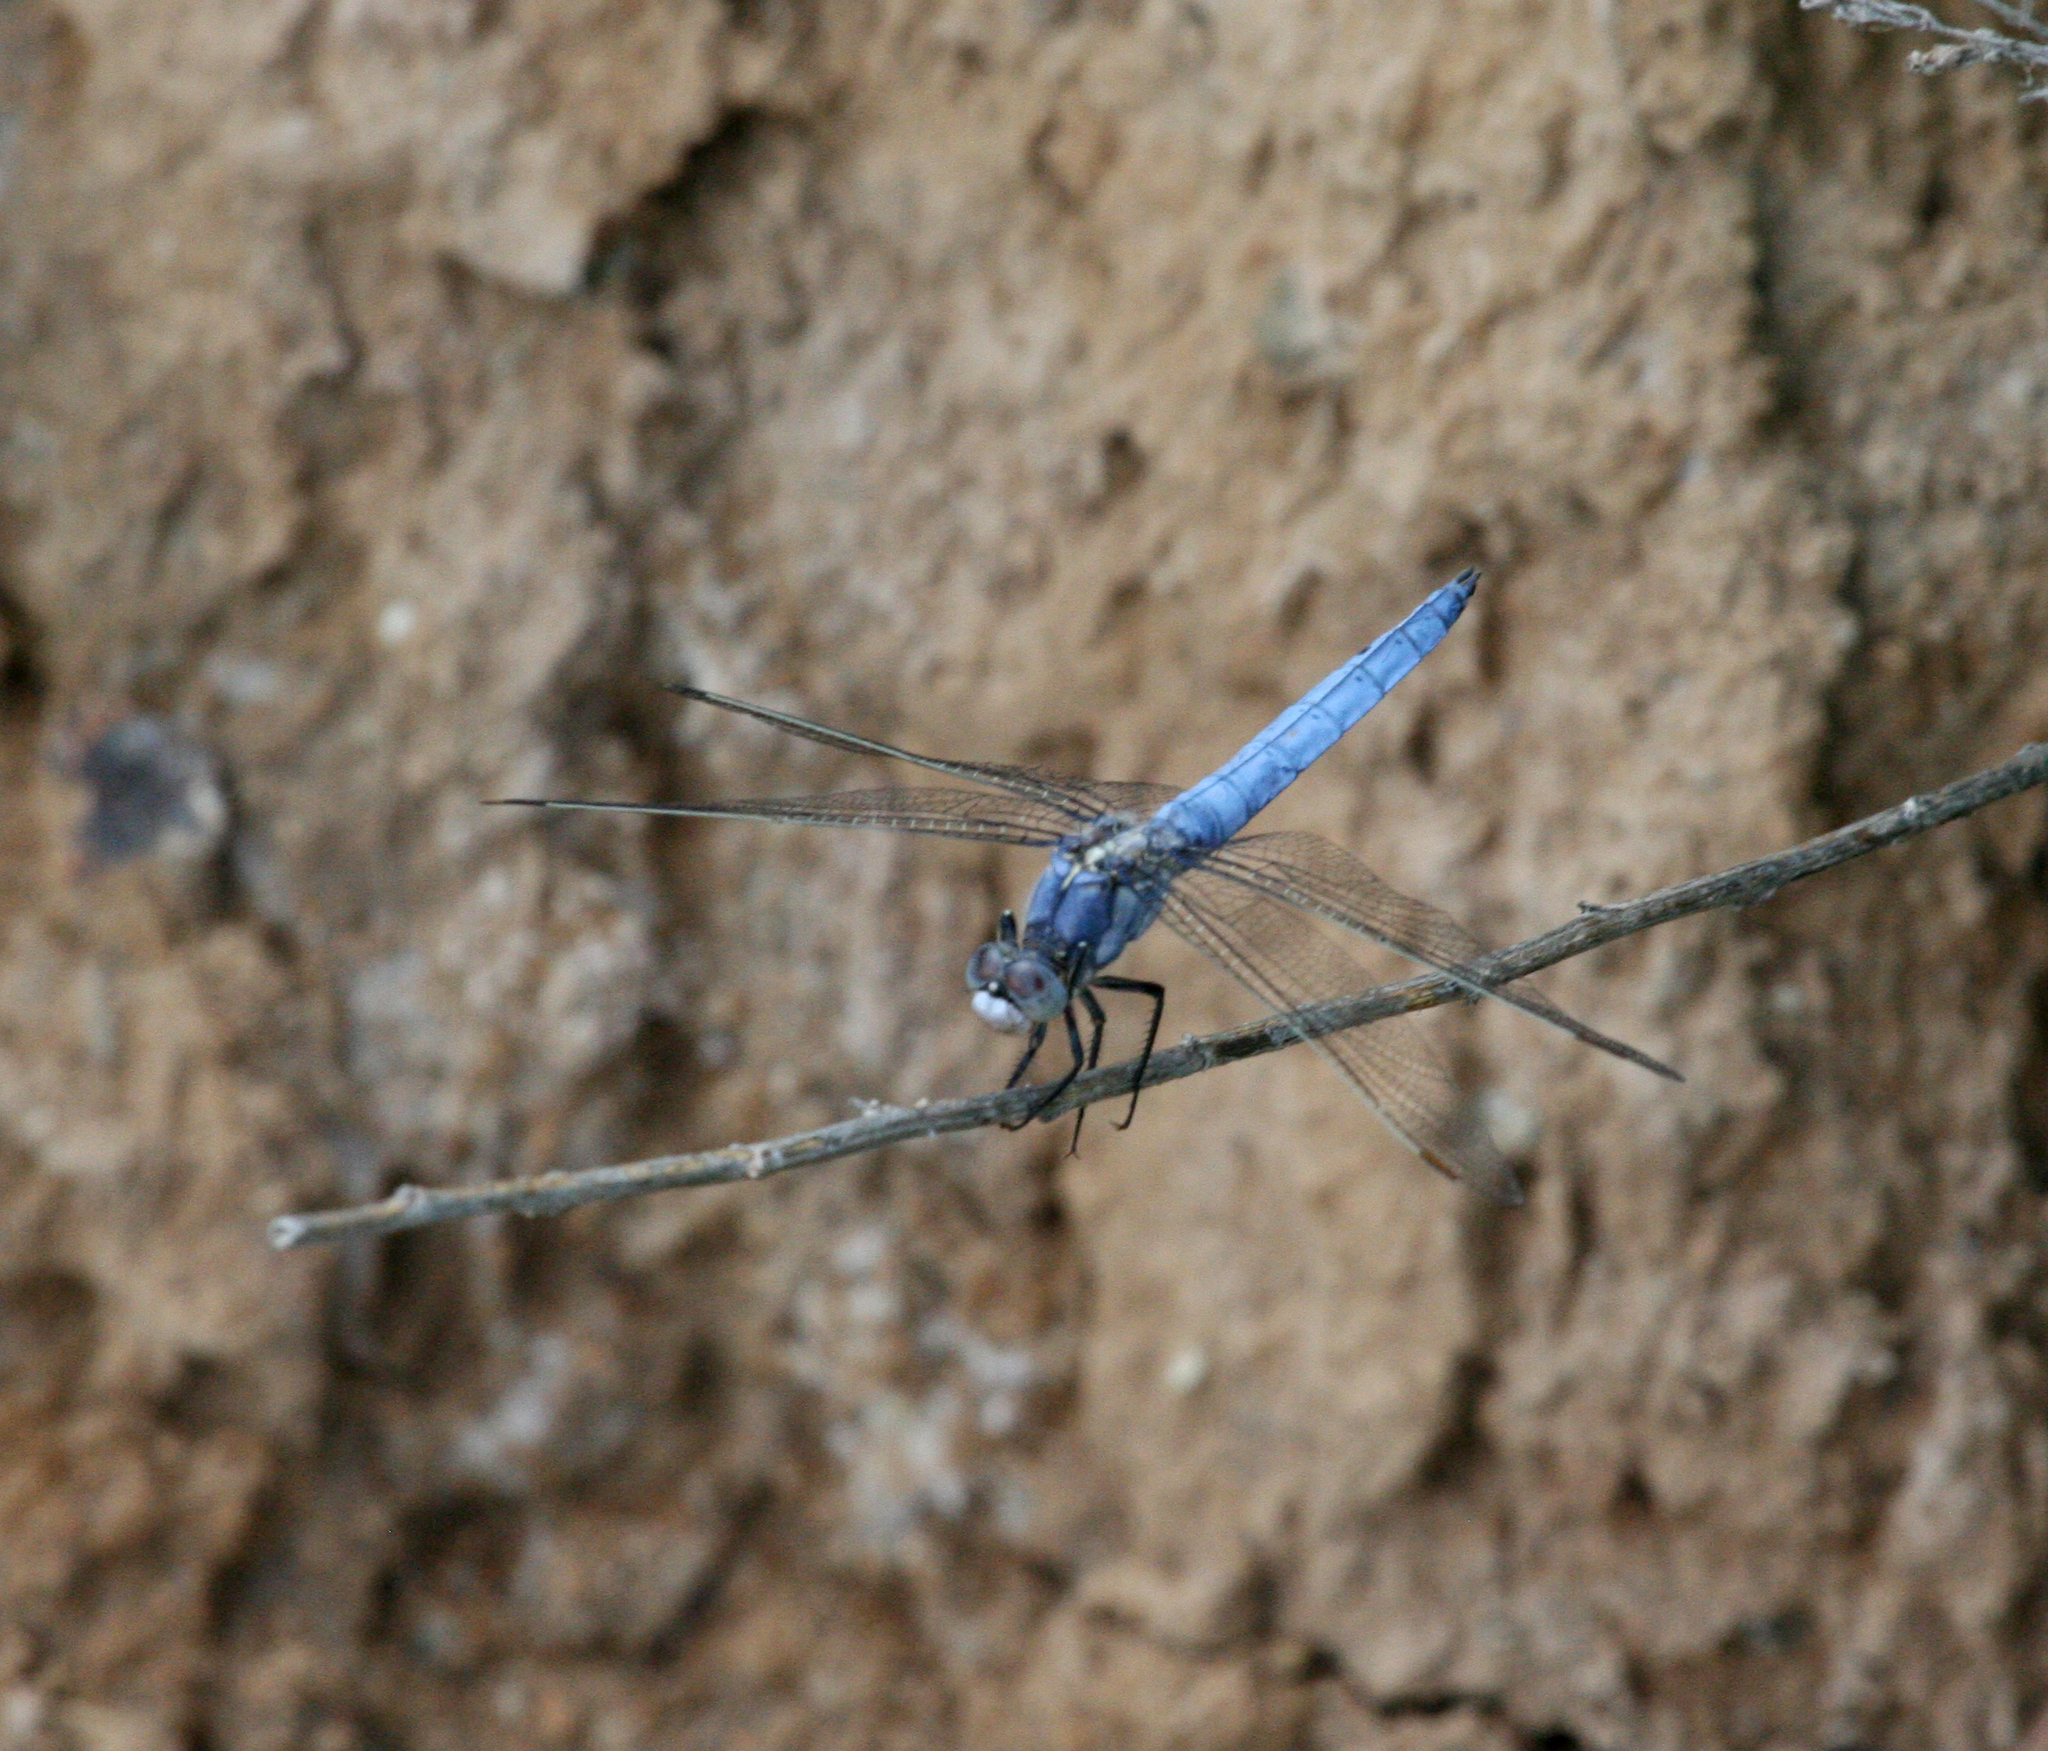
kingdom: Animalia
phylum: Arthropoda
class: Insecta
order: Odonata
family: Libellulidae
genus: Orthetrum
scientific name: Orthetrum brunneum
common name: Southern skimmer
